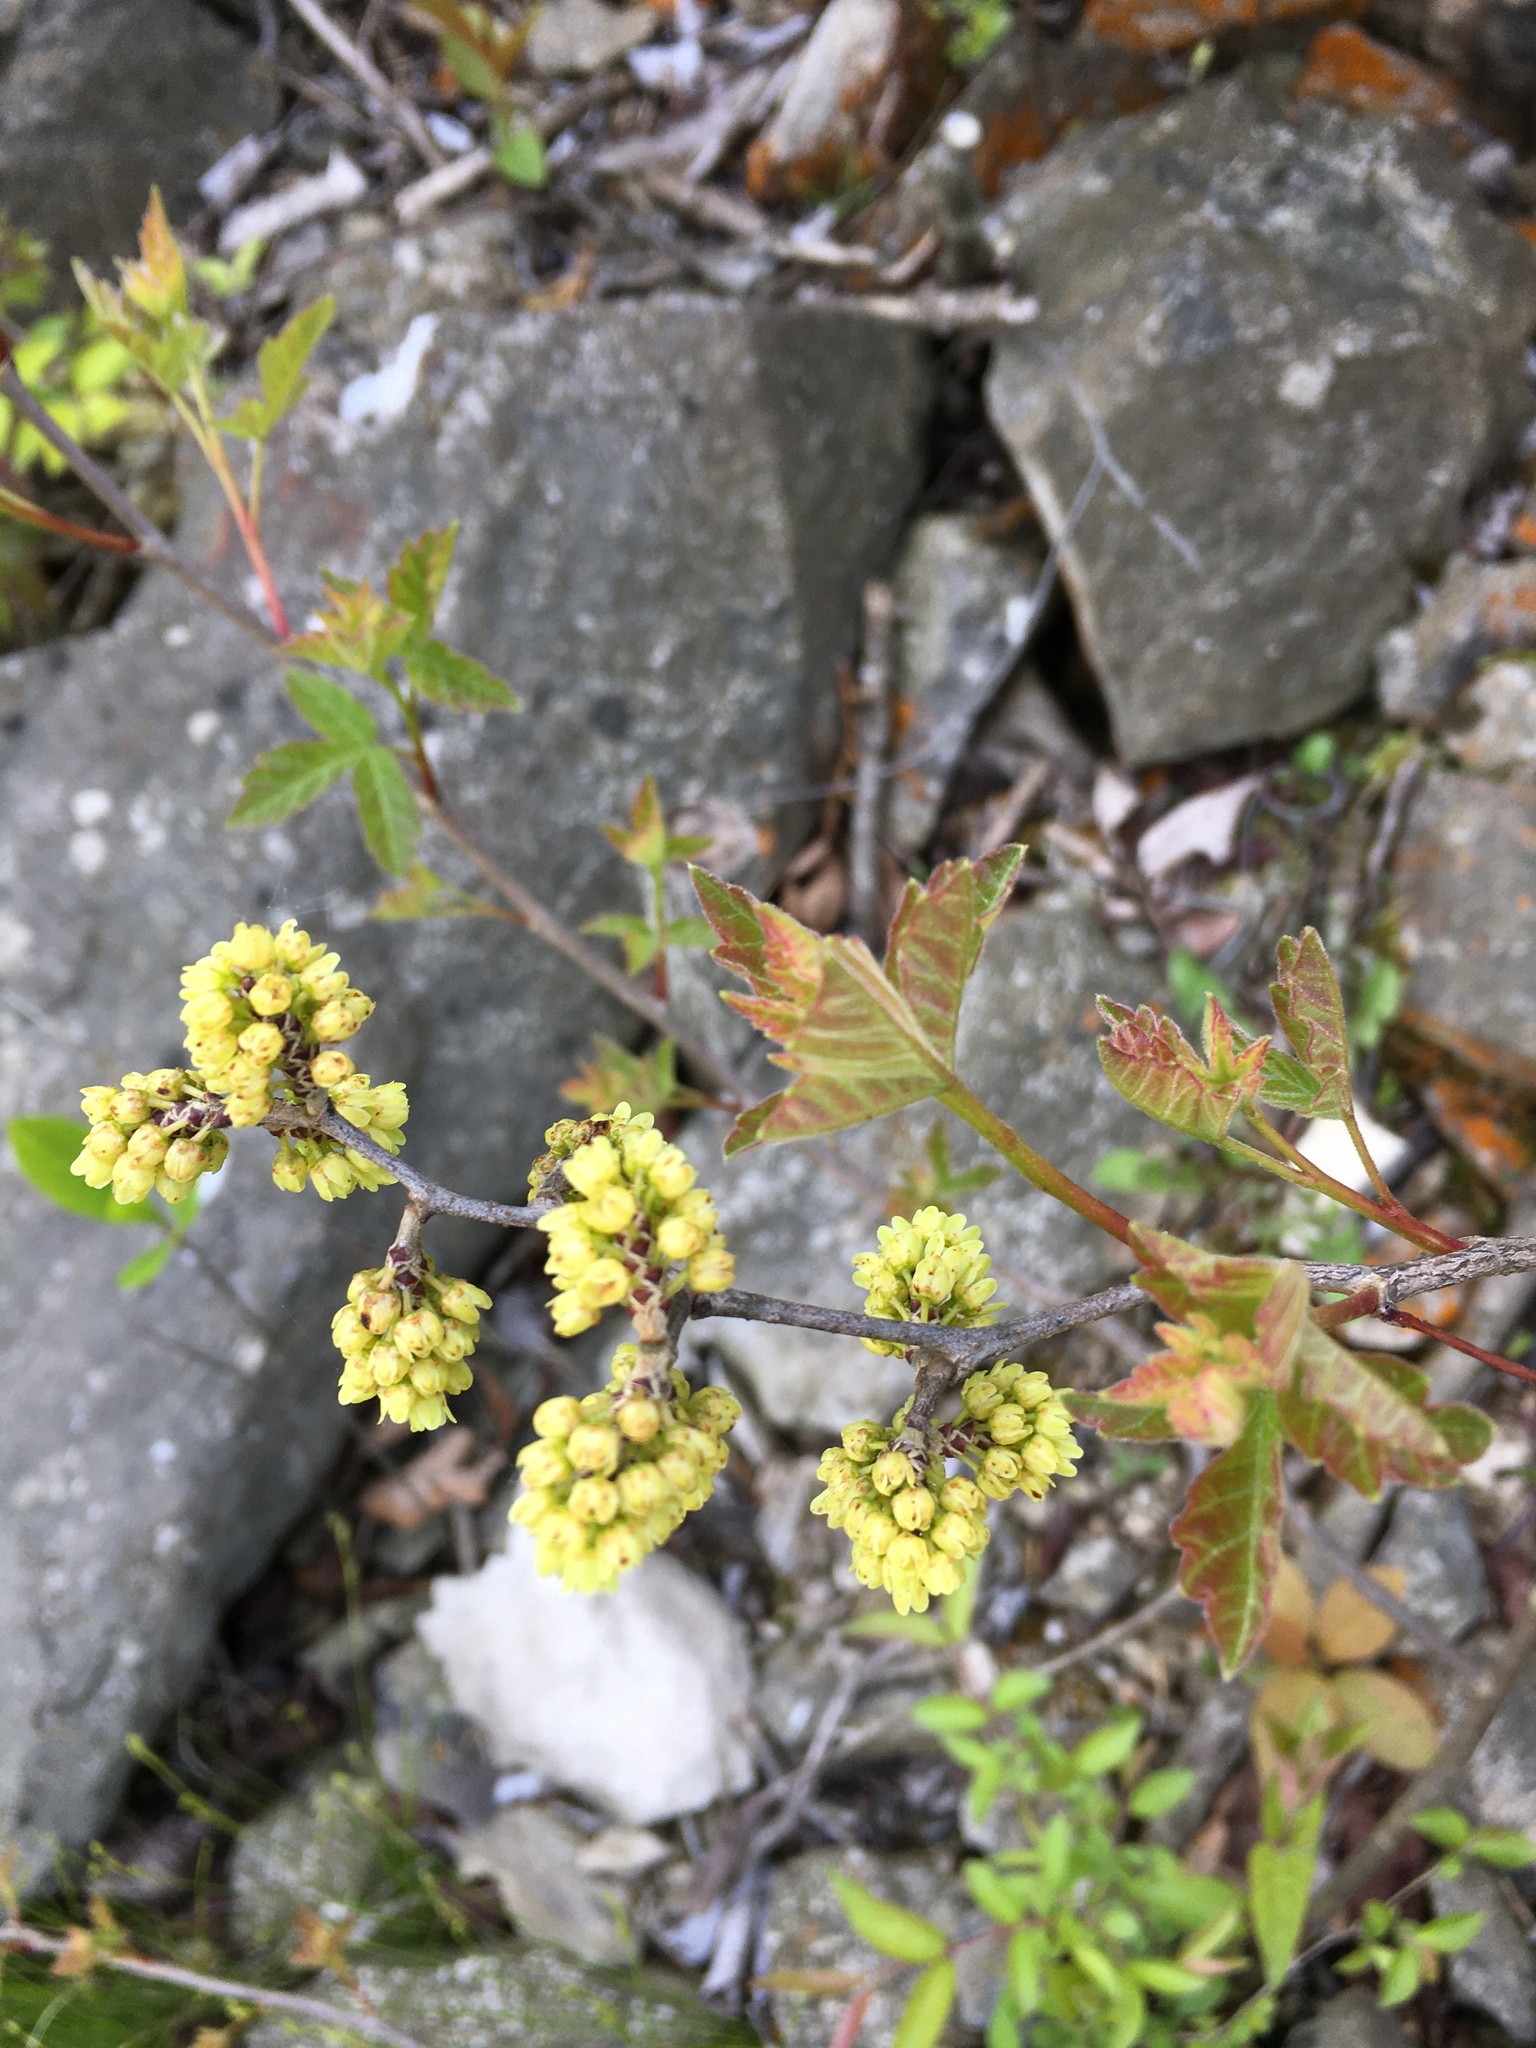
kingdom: Plantae
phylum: Tracheophyta
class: Magnoliopsida
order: Sapindales
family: Anacardiaceae
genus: Rhus
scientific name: Rhus aromatica
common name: Aromatic sumac
